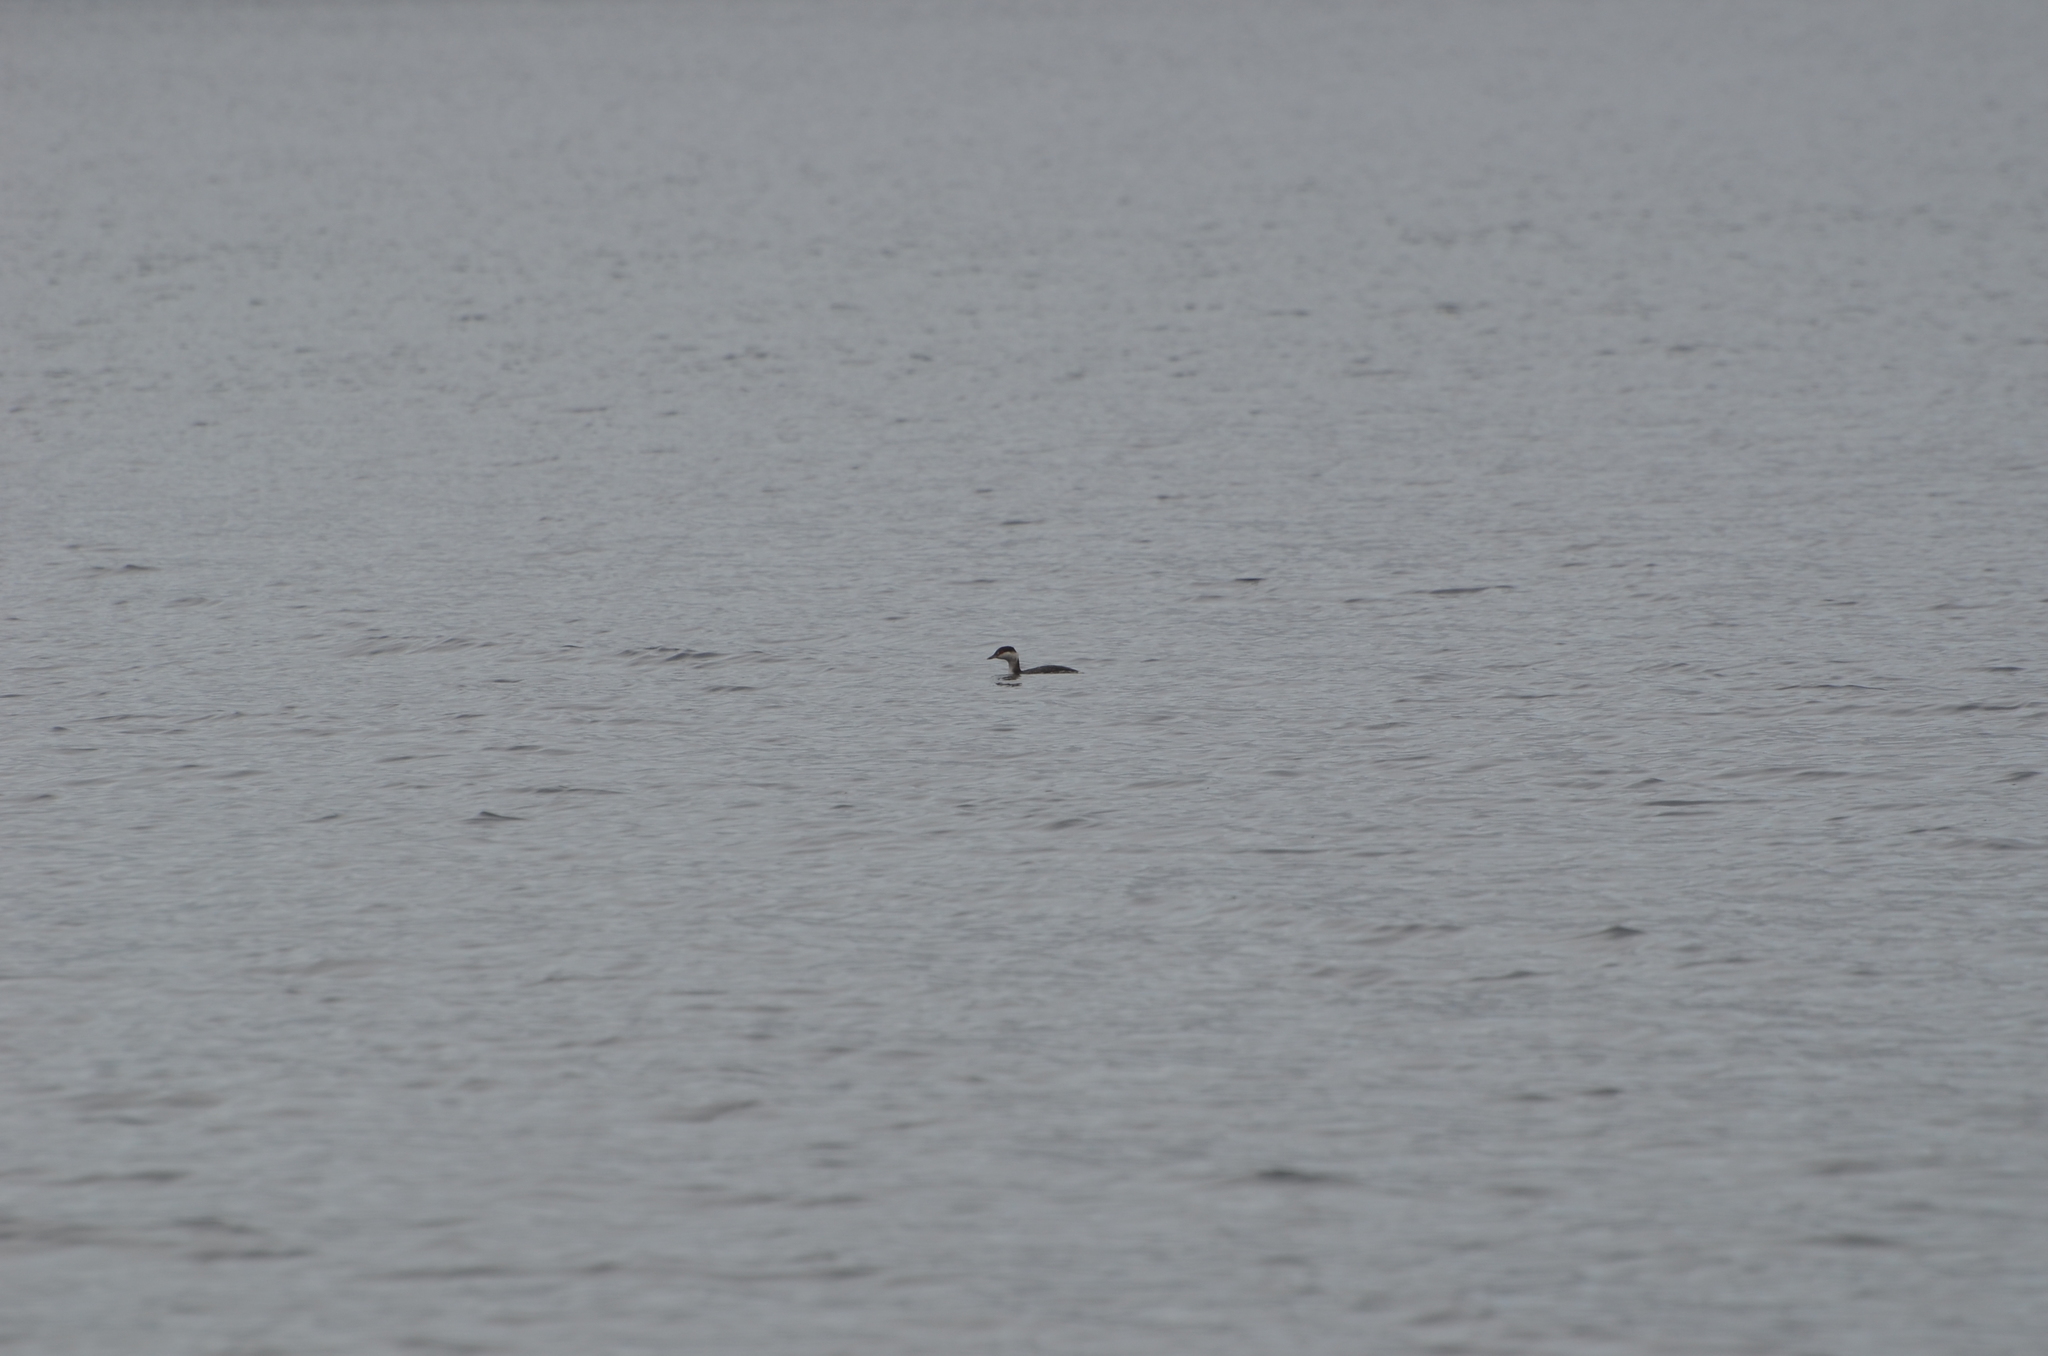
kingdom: Animalia
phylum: Chordata
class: Aves
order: Podicipediformes
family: Podicipedidae
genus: Podiceps
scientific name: Podiceps auritus
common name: Horned grebe
